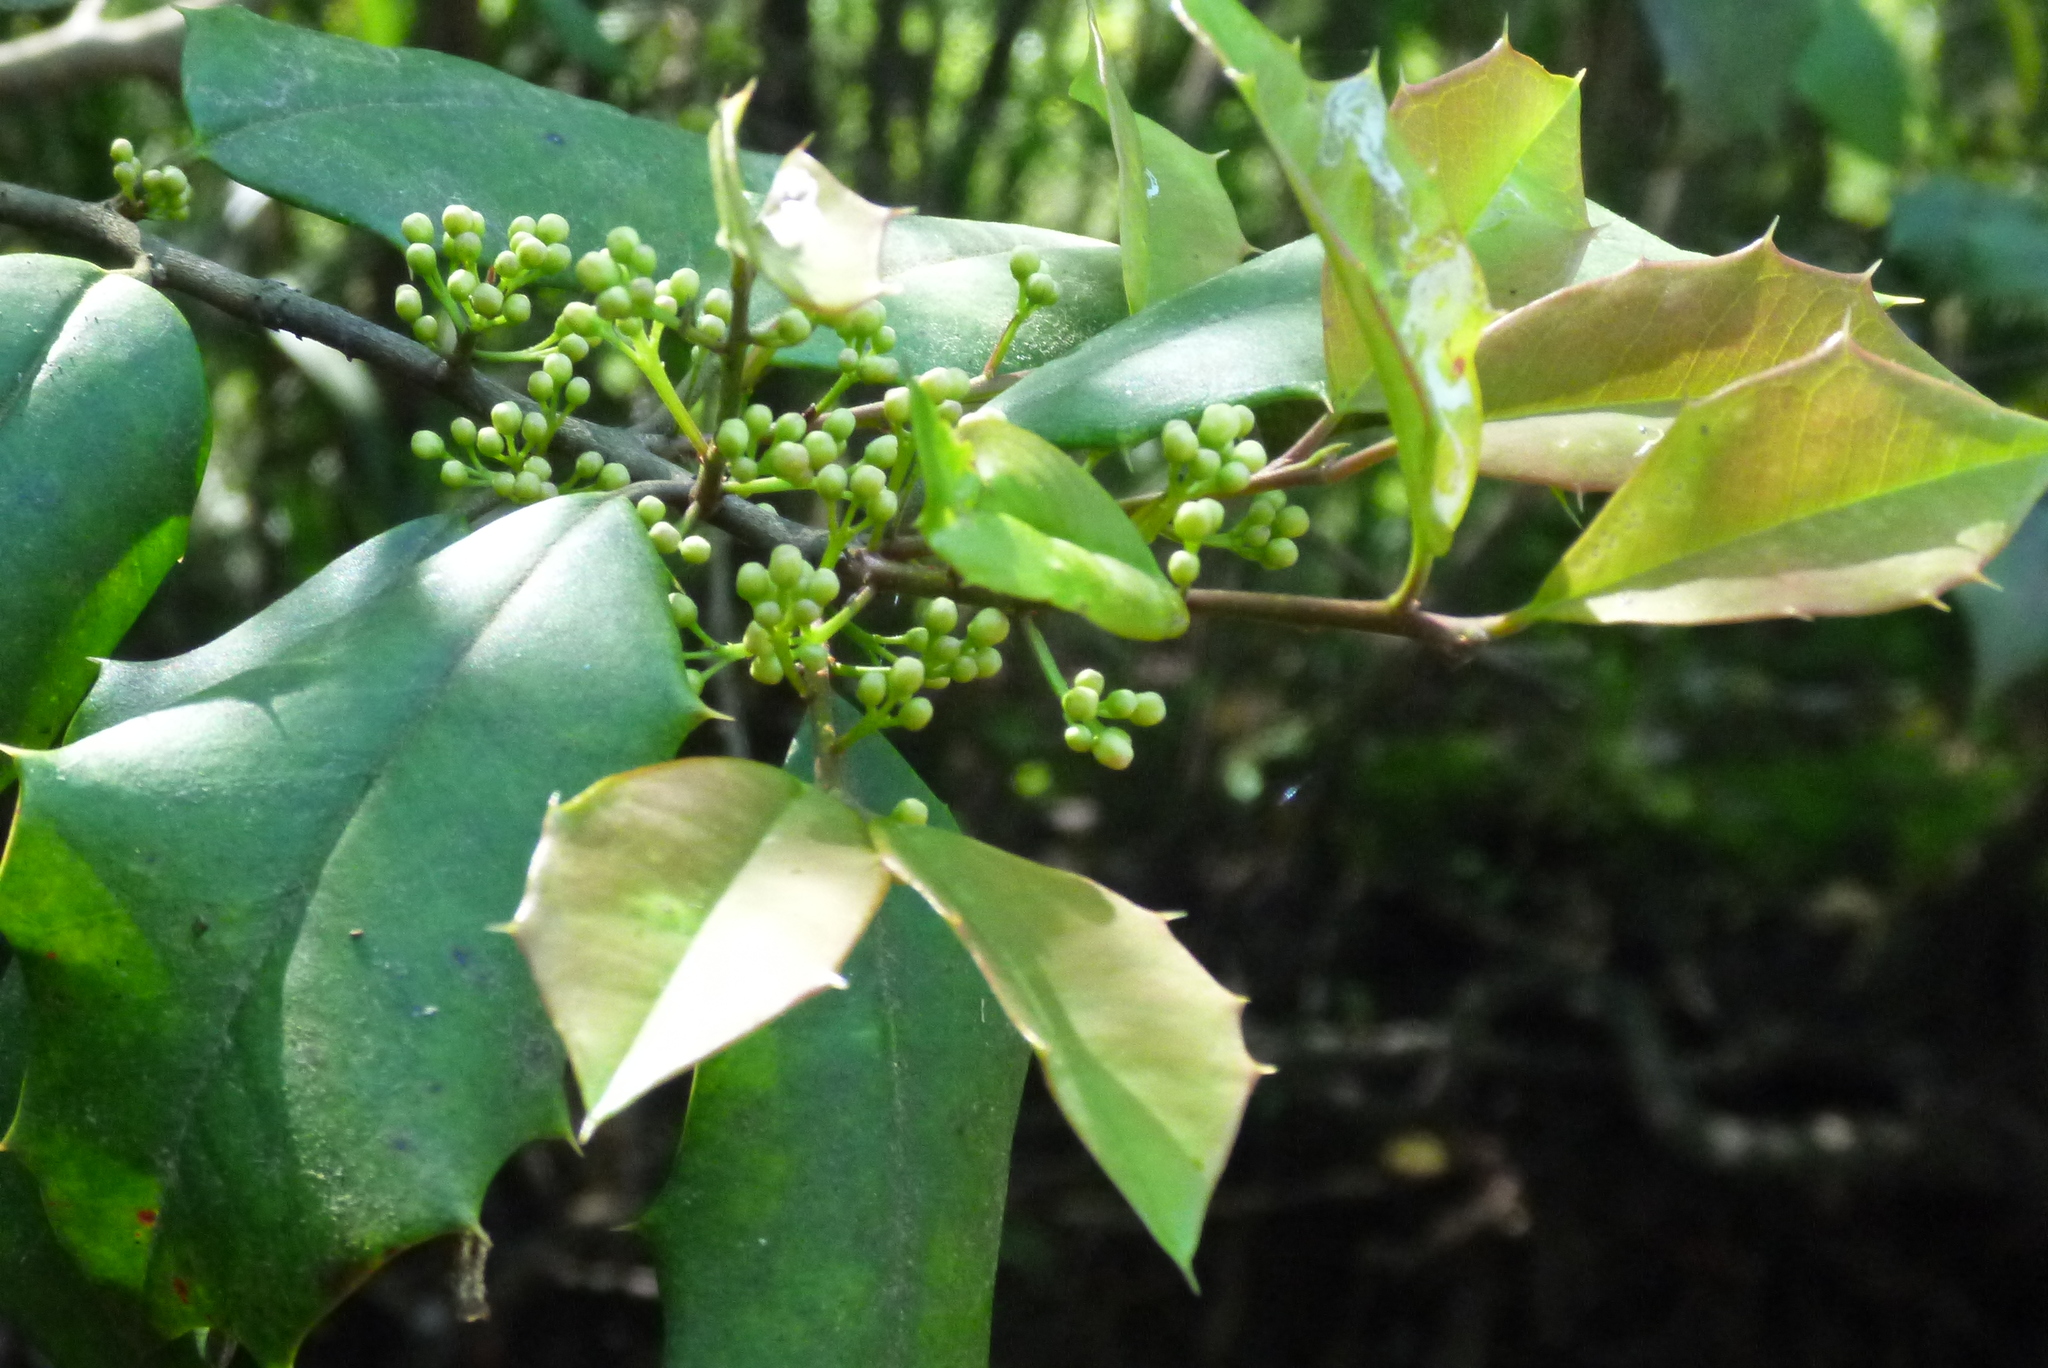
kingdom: Plantae
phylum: Tracheophyta
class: Magnoliopsida
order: Aquifoliales
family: Aquifoliaceae
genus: Ilex
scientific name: Ilex opaca
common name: American holly
